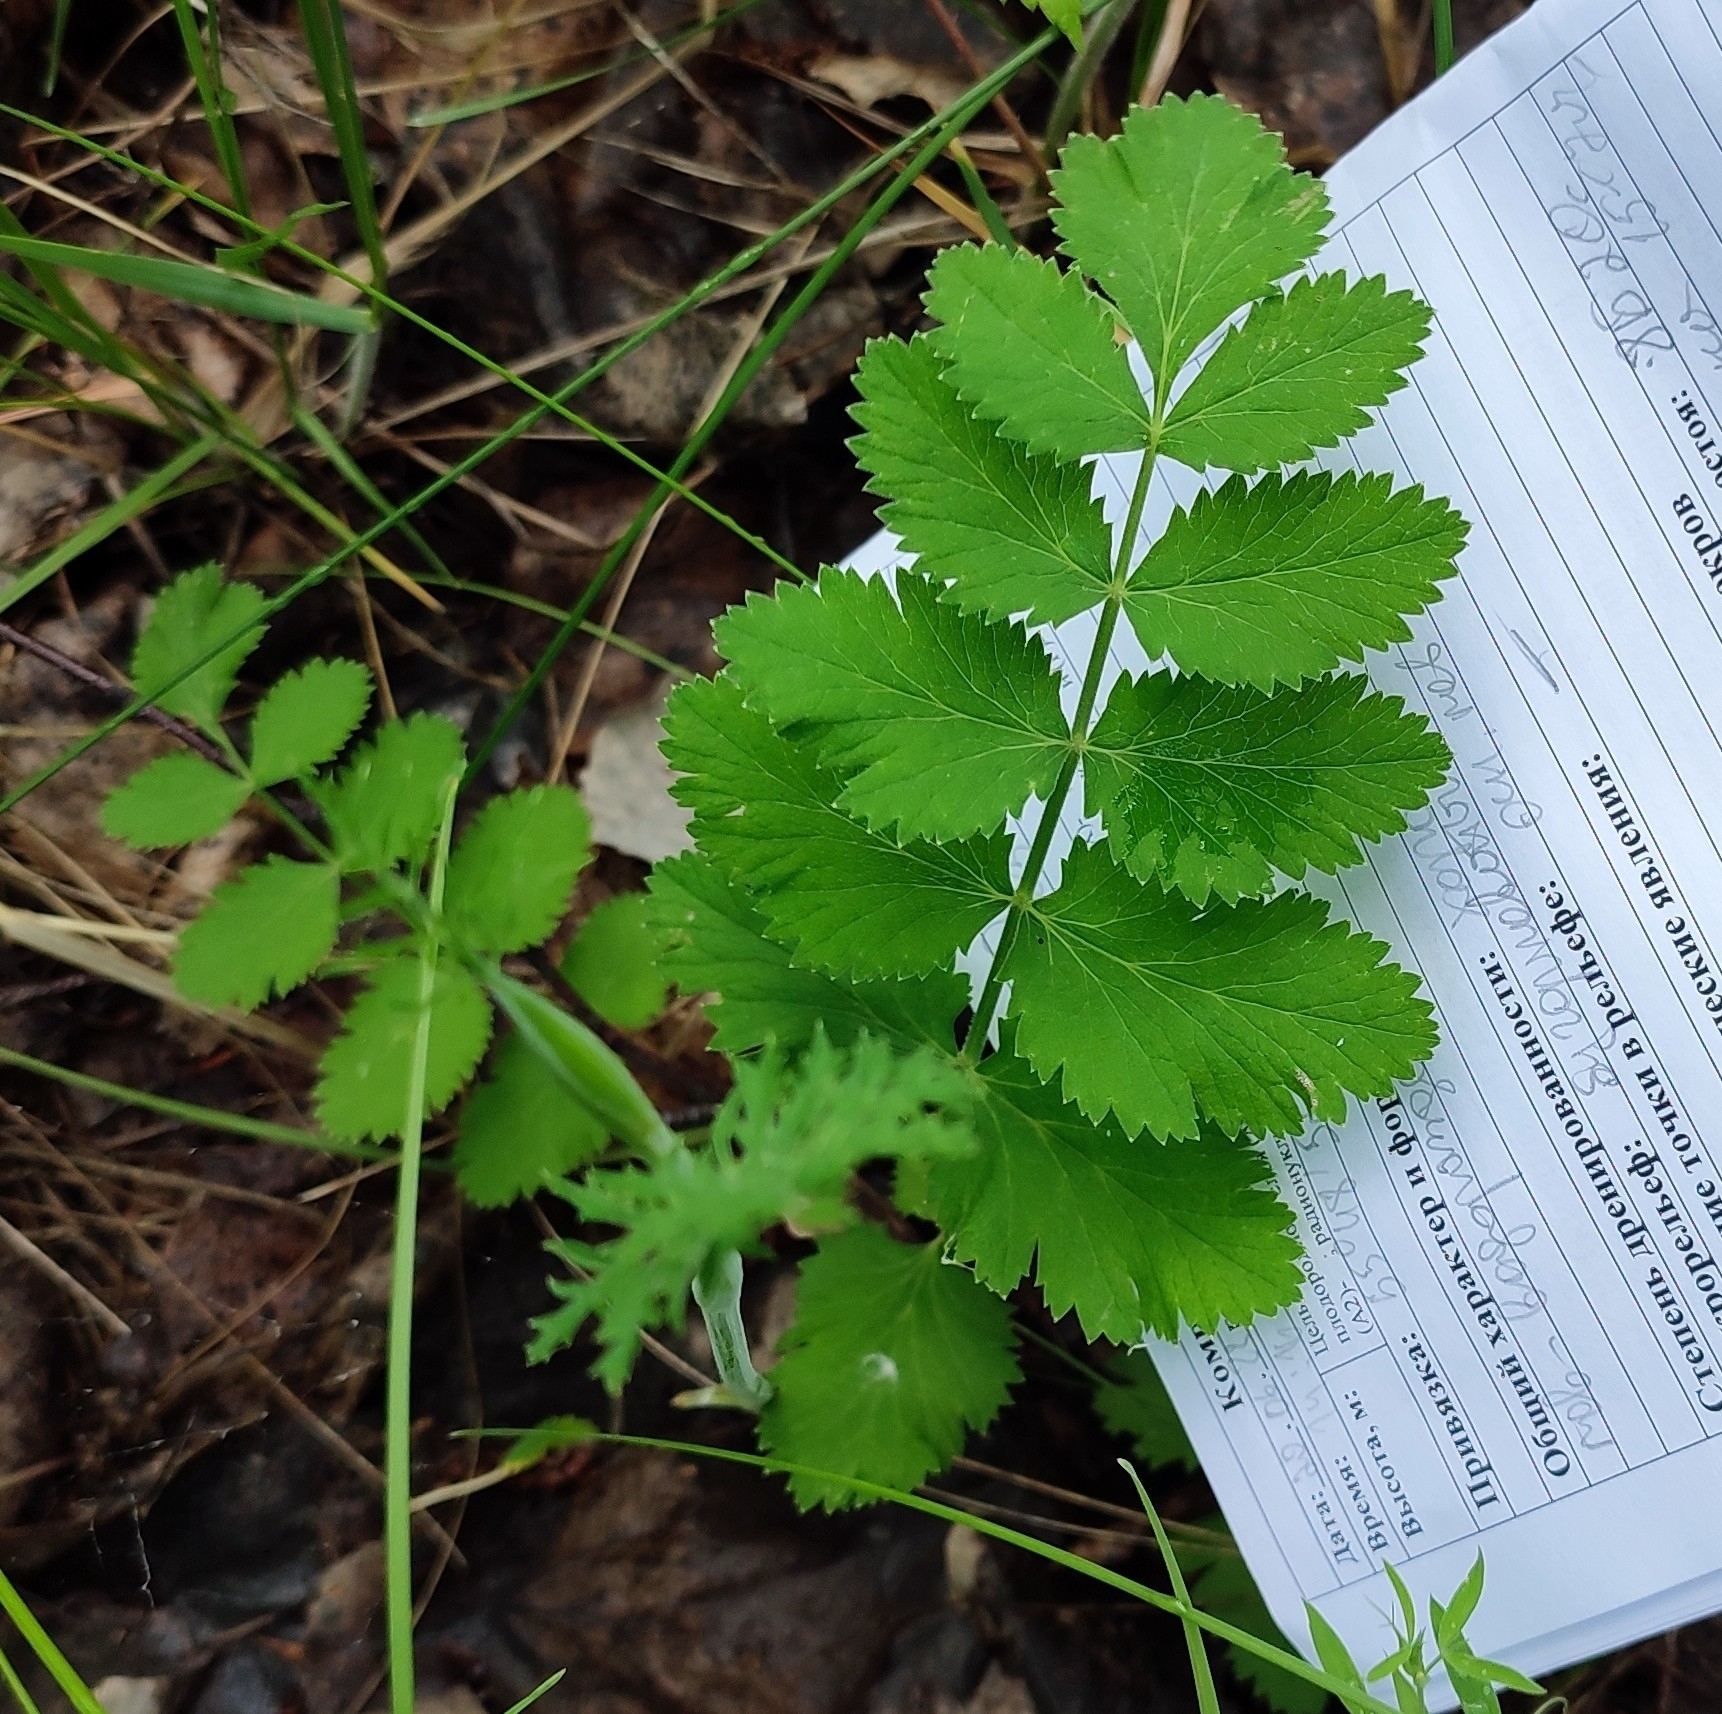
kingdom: Plantae
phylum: Tracheophyta
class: Magnoliopsida
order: Apiales
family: Apiaceae
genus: Pimpinella
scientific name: Pimpinella saxifraga
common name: Burnet-saxifrage
